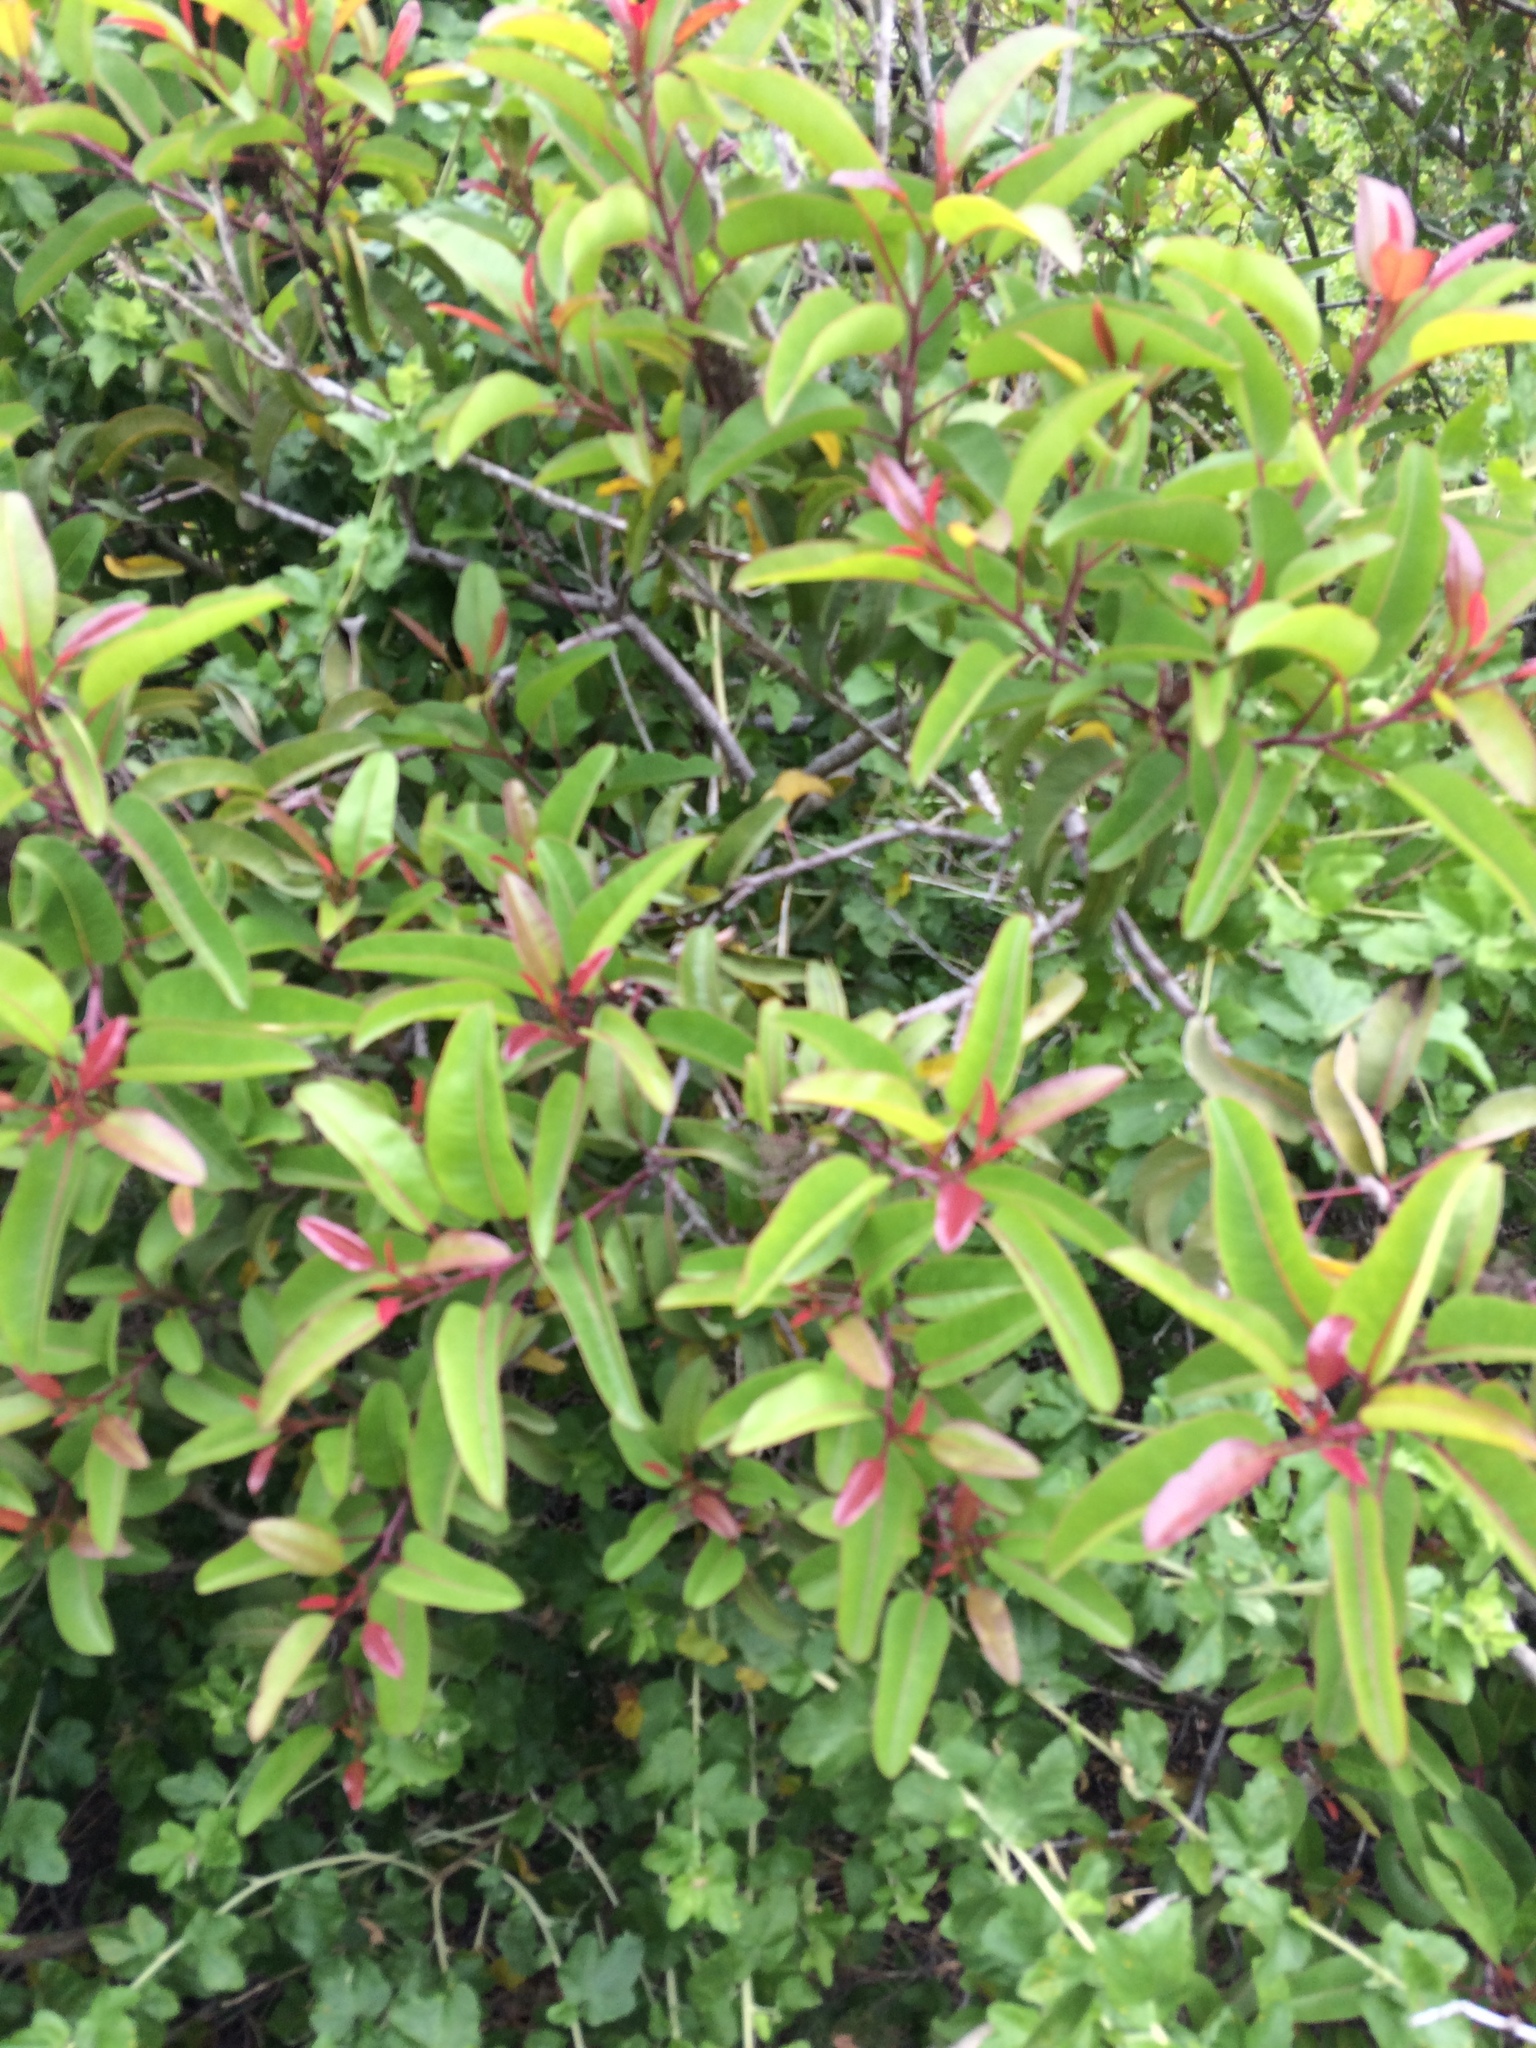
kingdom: Plantae
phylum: Tracheophyta
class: Magnoliopsida
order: Sapindales
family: Anacardiaceae
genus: Malosma
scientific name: Malosma laurina
